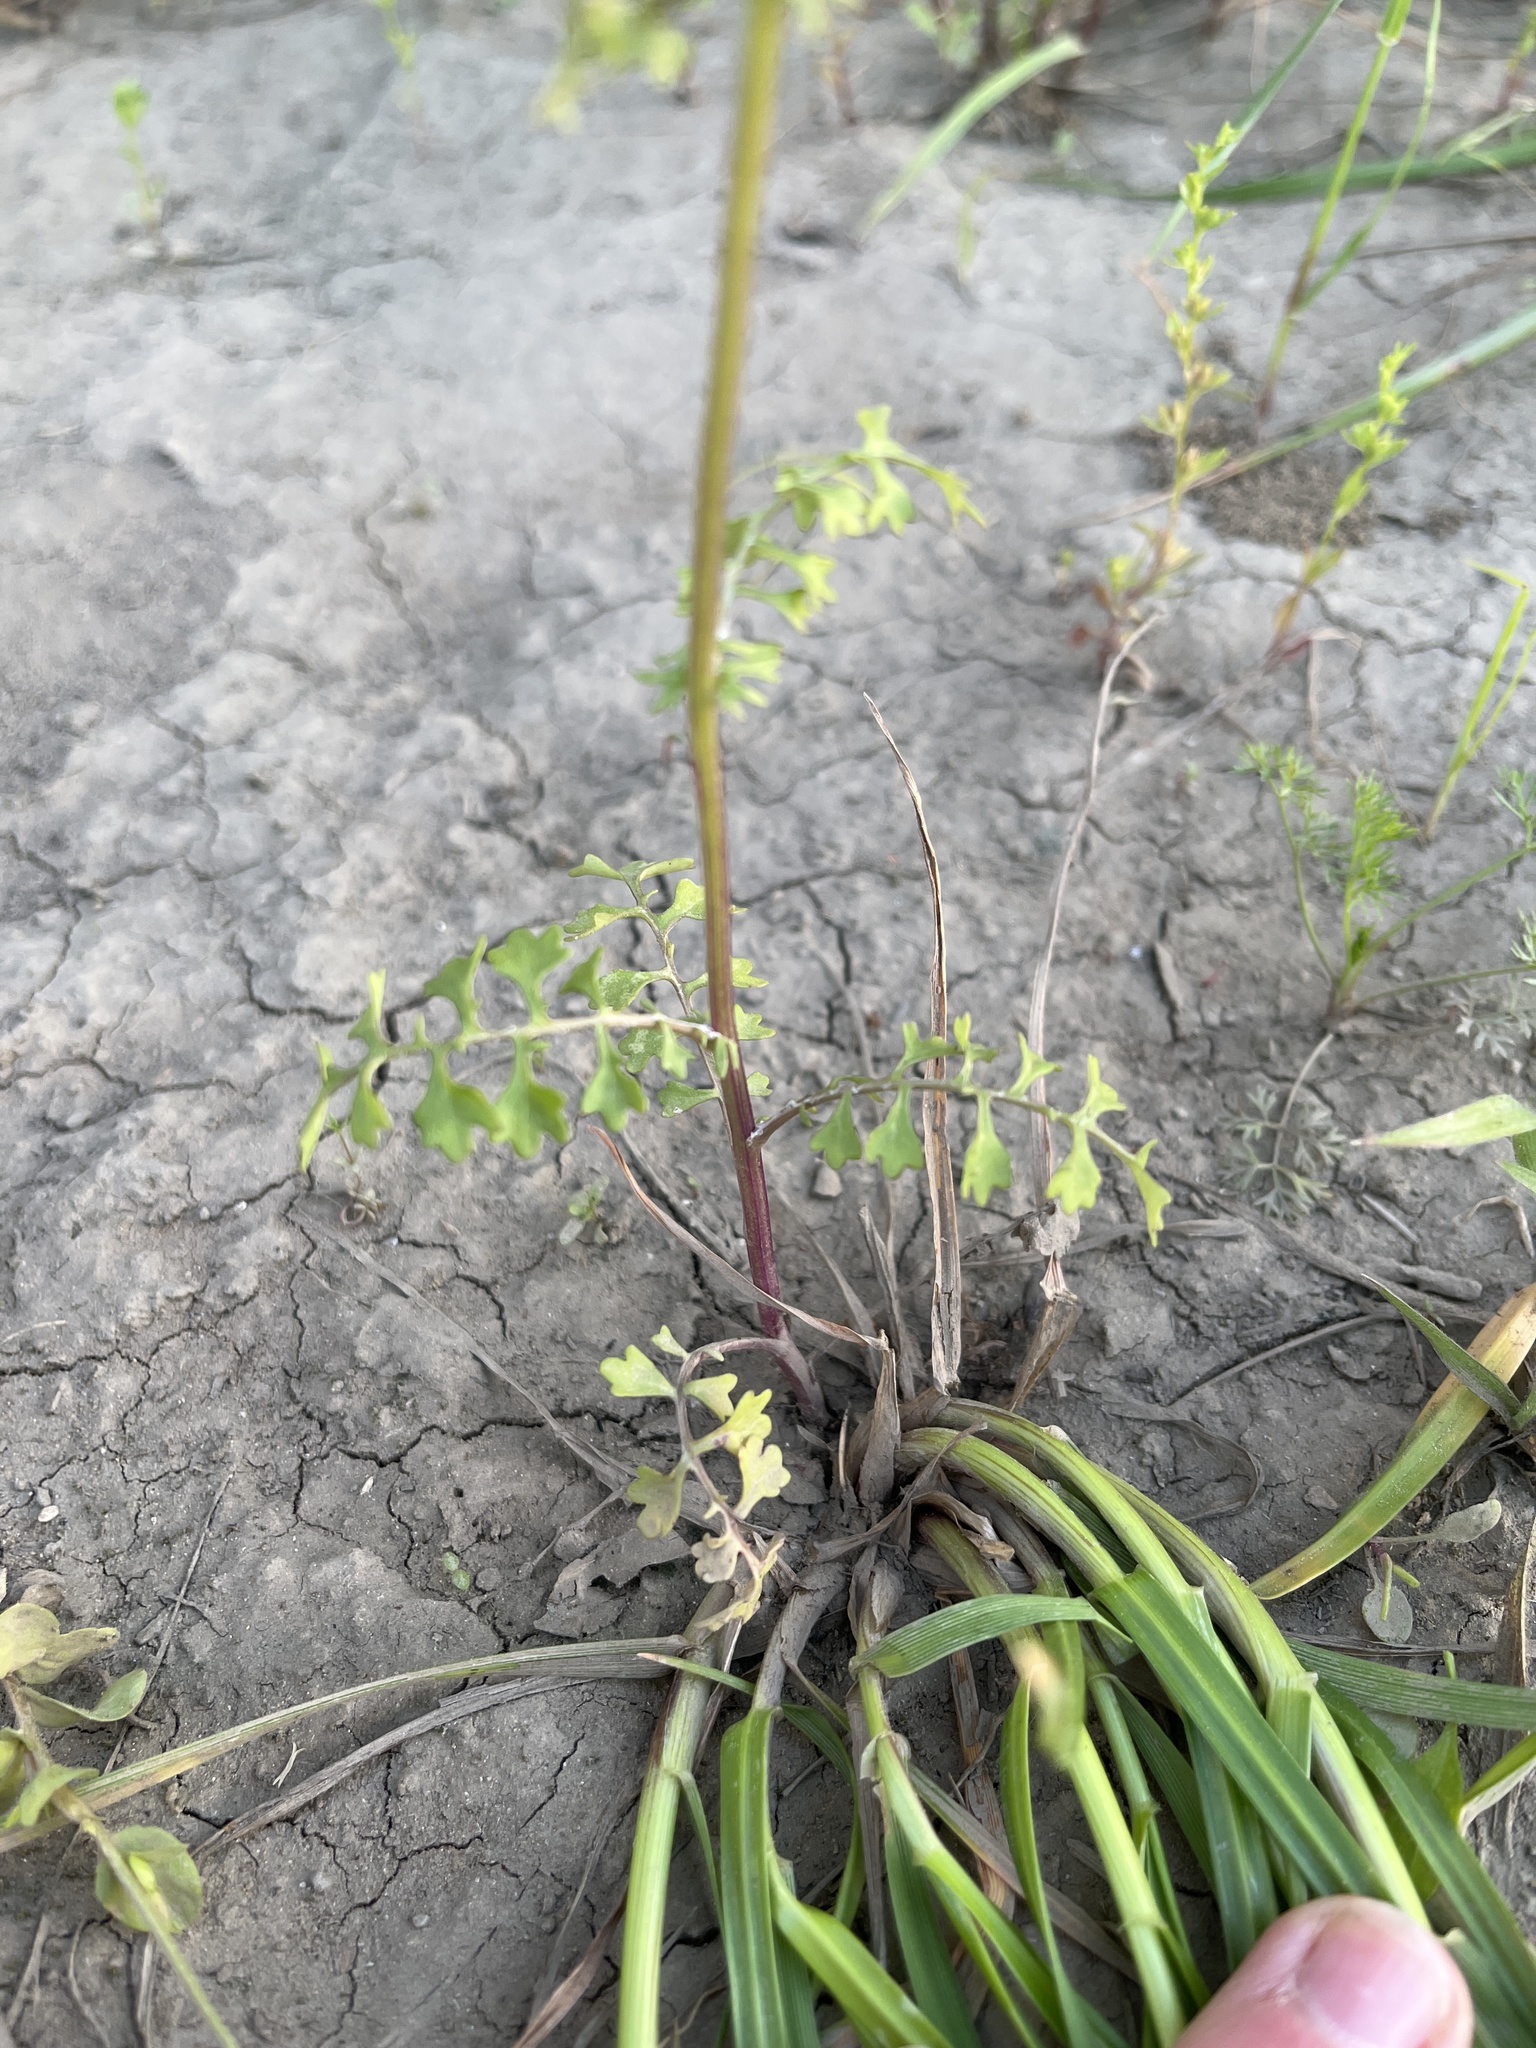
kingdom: Plantae
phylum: Tracheophyta
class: Magnoliopsida
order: Asterales
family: Asteraceae
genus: Packera
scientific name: Packera tampicana
